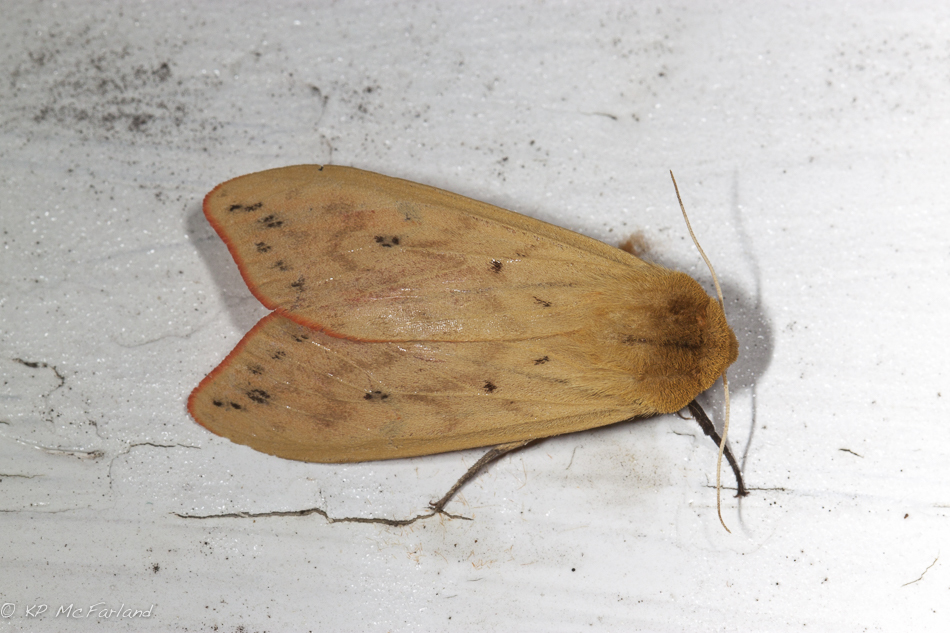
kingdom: Animalia
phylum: Arthropoda
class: Insecta
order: Lepidoptera
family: Erebidae
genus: Pyrrharctia
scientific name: Pyrrharctia isabella
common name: Isabella tiger moth
